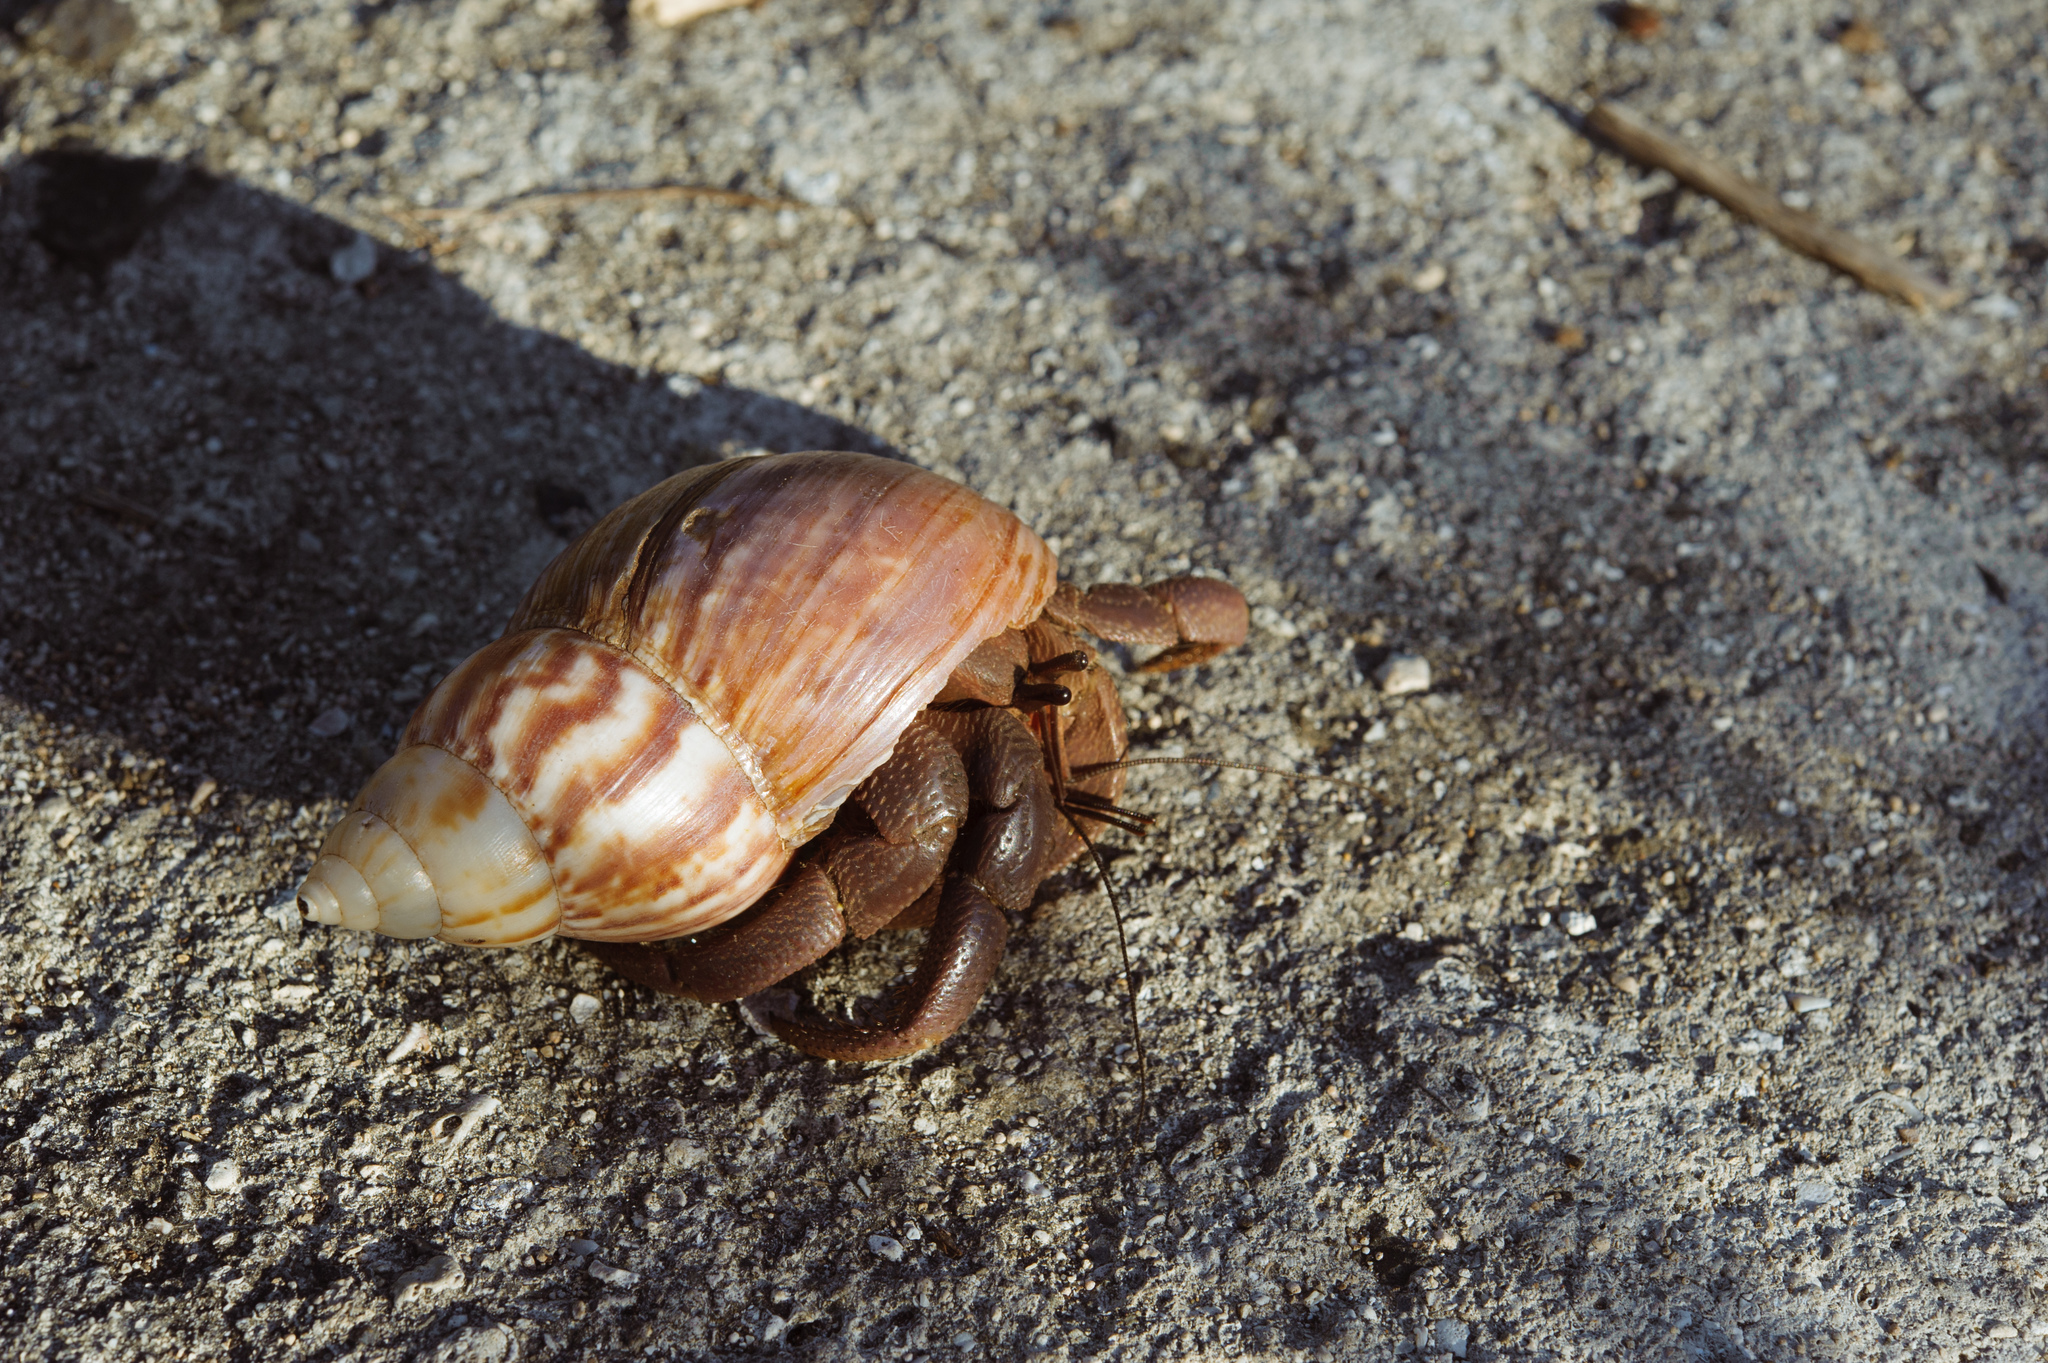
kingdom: Animalia
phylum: Arthropoda
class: Malacostraca
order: Decapoda
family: Coenobitidae
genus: Coenobita
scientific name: Coenobita brevimanus
